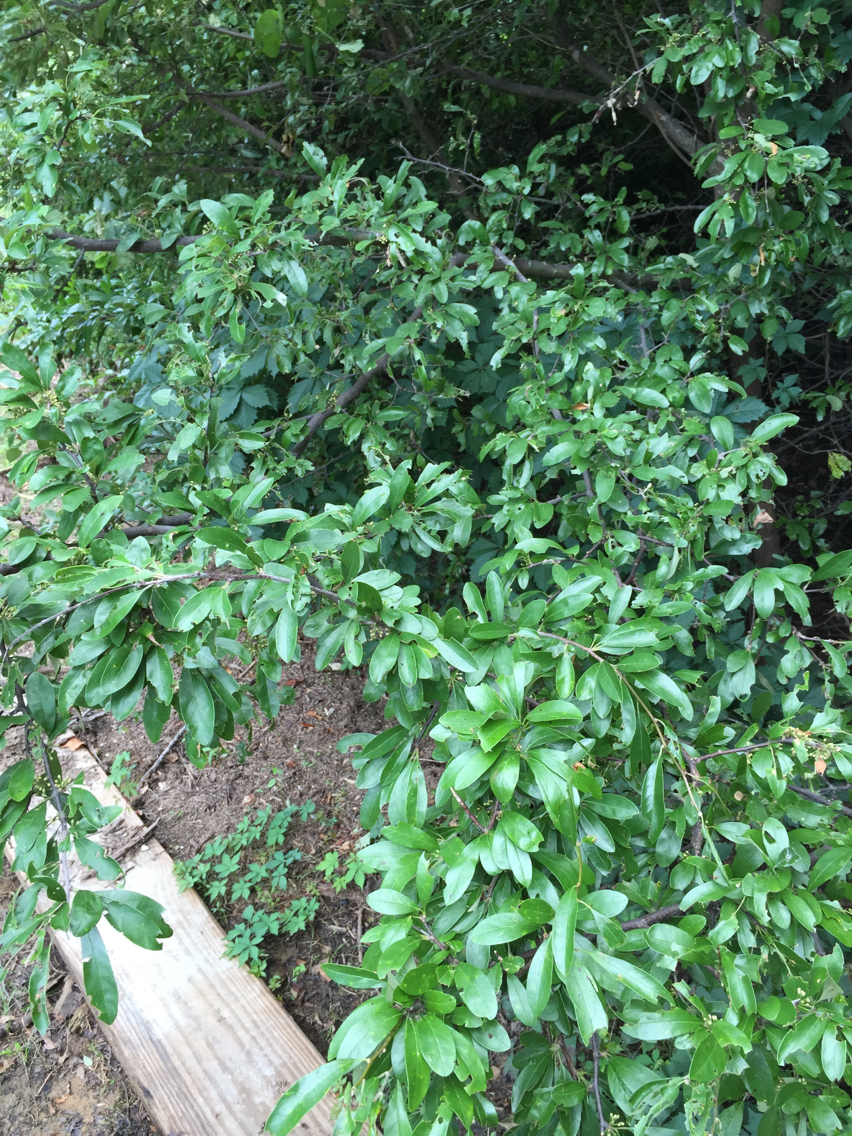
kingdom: Plantae
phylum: Tracheophyta
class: Magnoliopsida
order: Ericales
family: Sapotaceae
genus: Sideroxylon
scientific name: Sideroxylon lanuginosum
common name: Chittamwood
